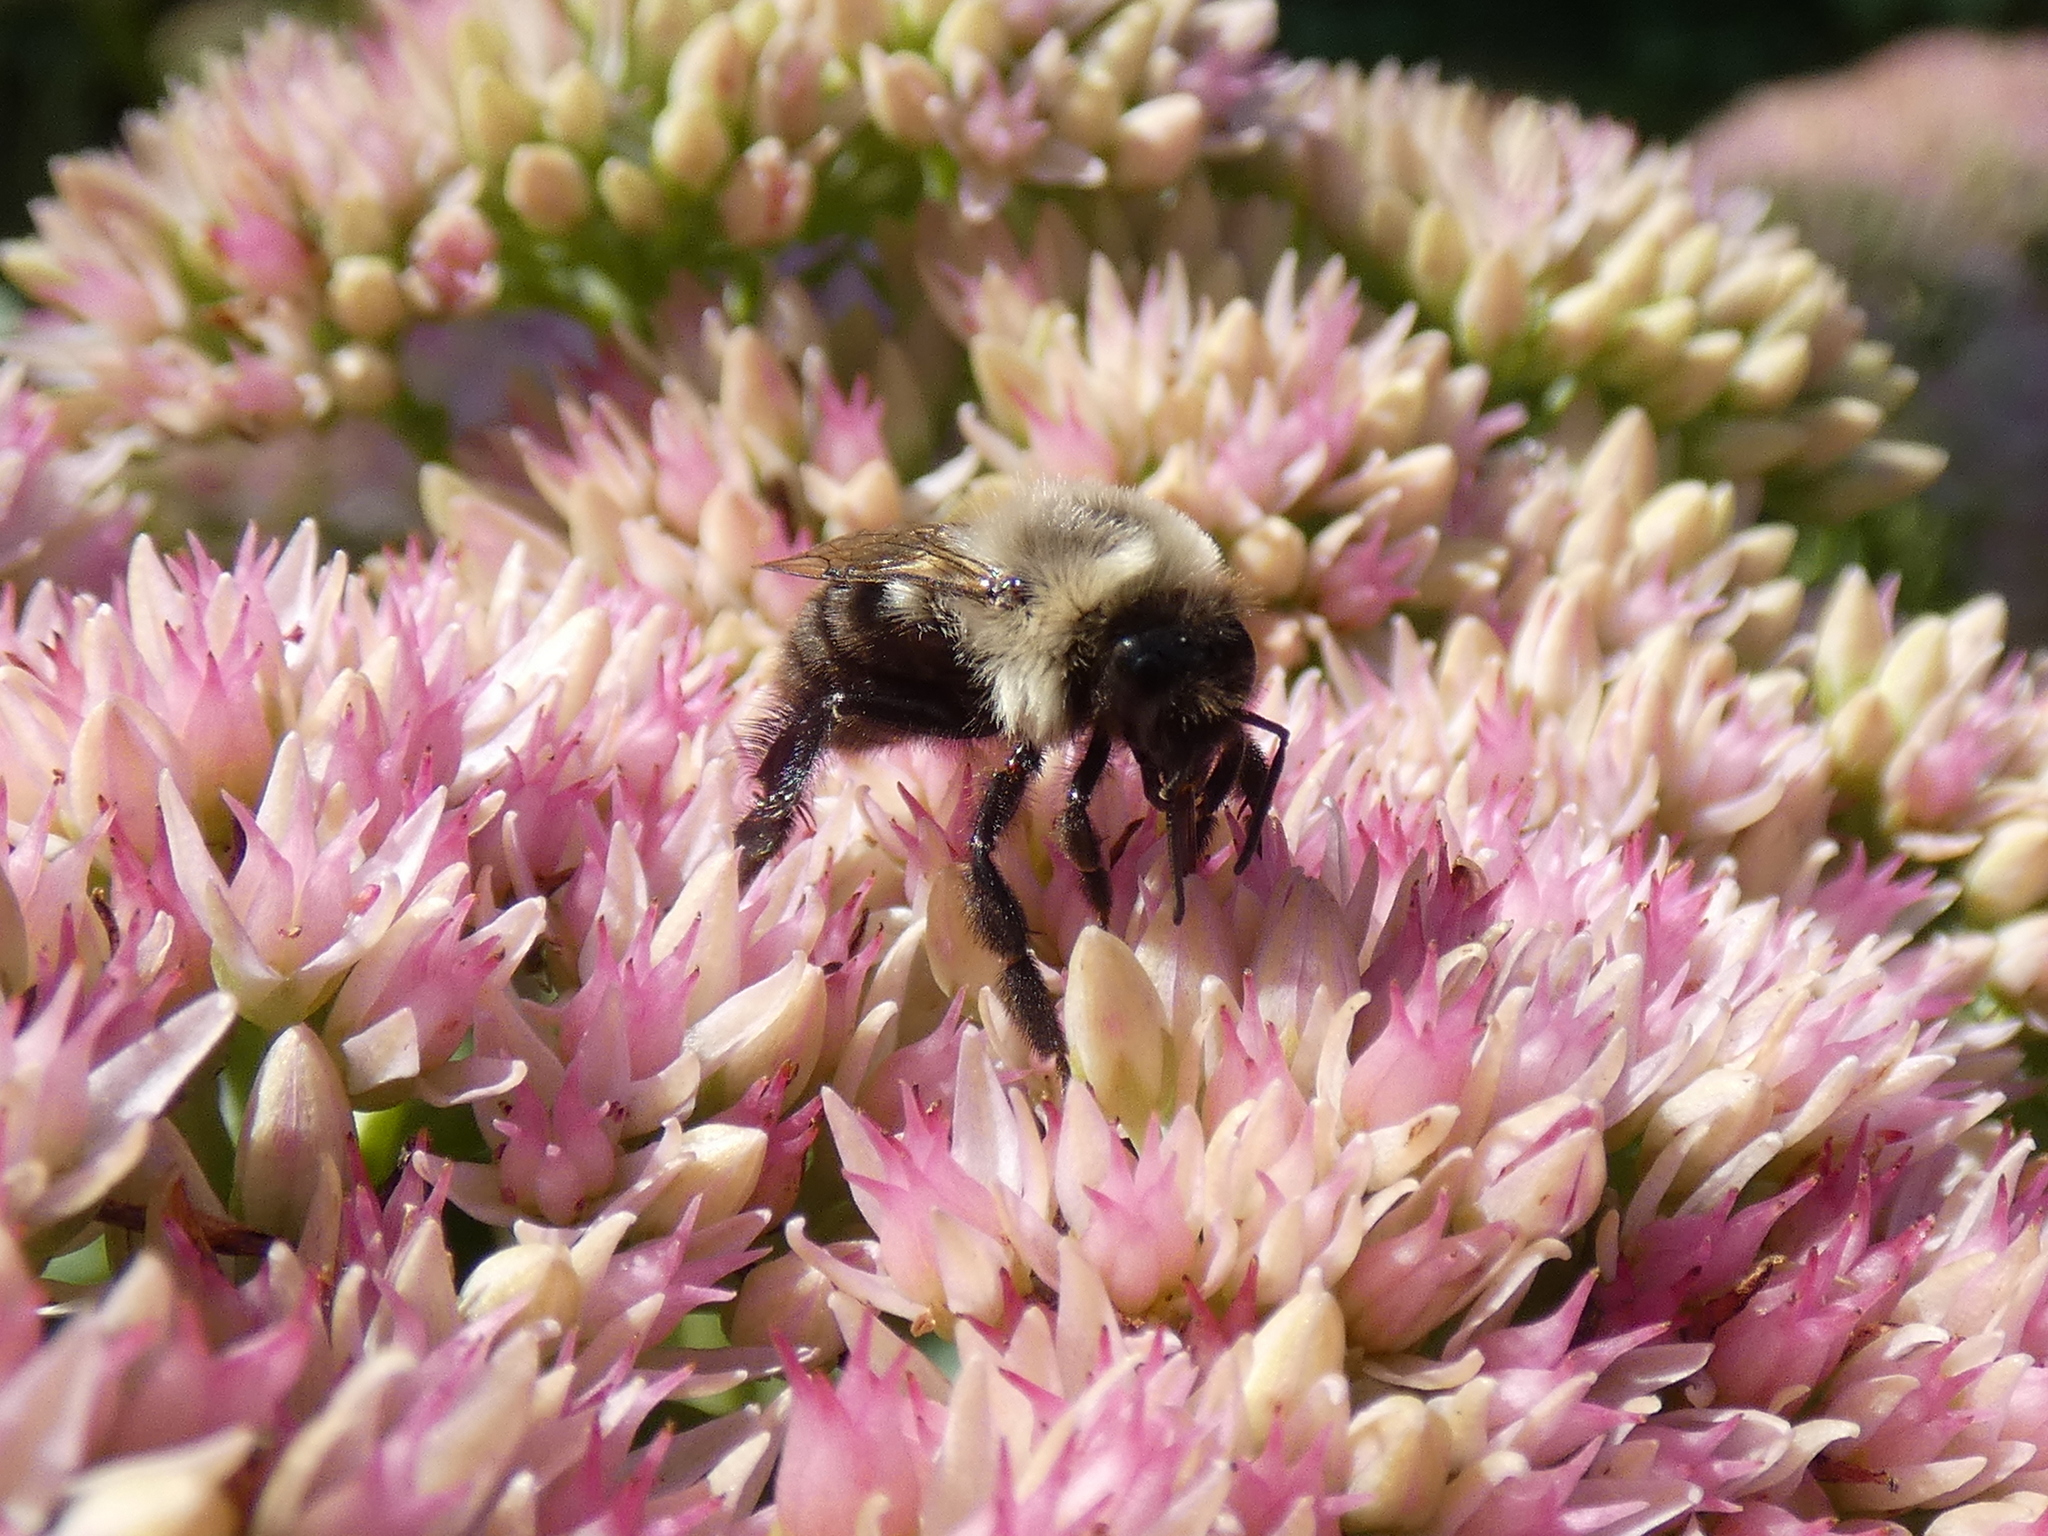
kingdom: Animalia
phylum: Arthropoda
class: Insecta
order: Hymenoptera
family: Apidae
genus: Bombus
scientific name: Bombus impatiens
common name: Common eastern bumble bee
